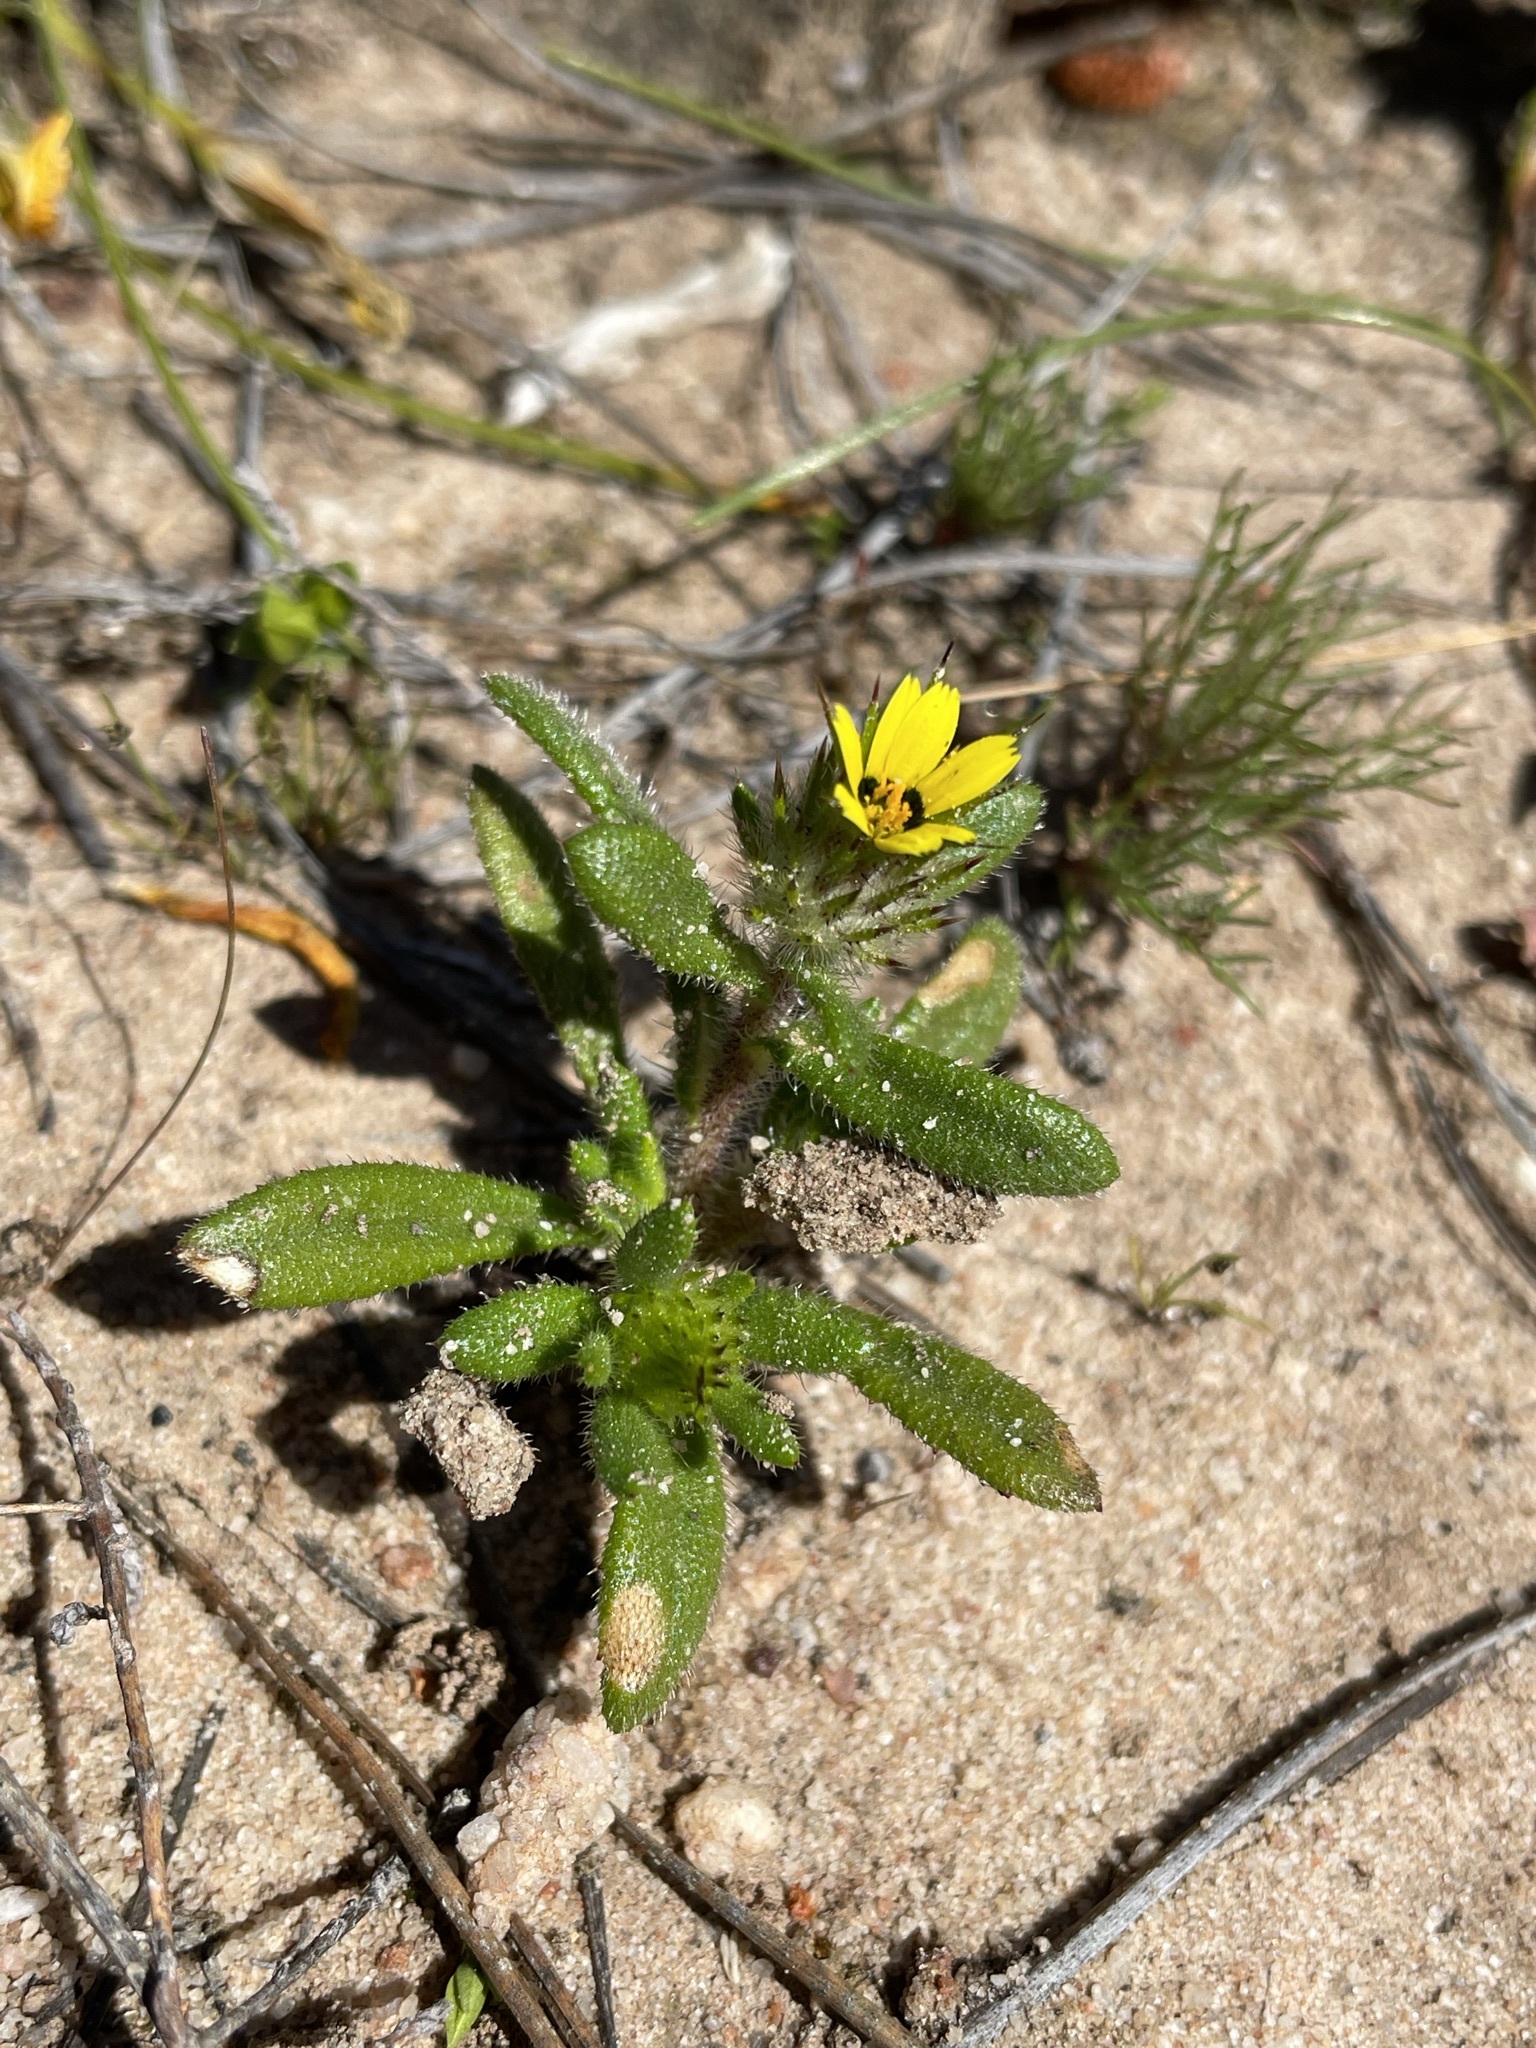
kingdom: Plantae
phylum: Tracheophyta
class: Magnoliopsida
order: Asterales
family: Asteraceae
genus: Gorteria
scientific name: Gorteria personata
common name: Gorteria
